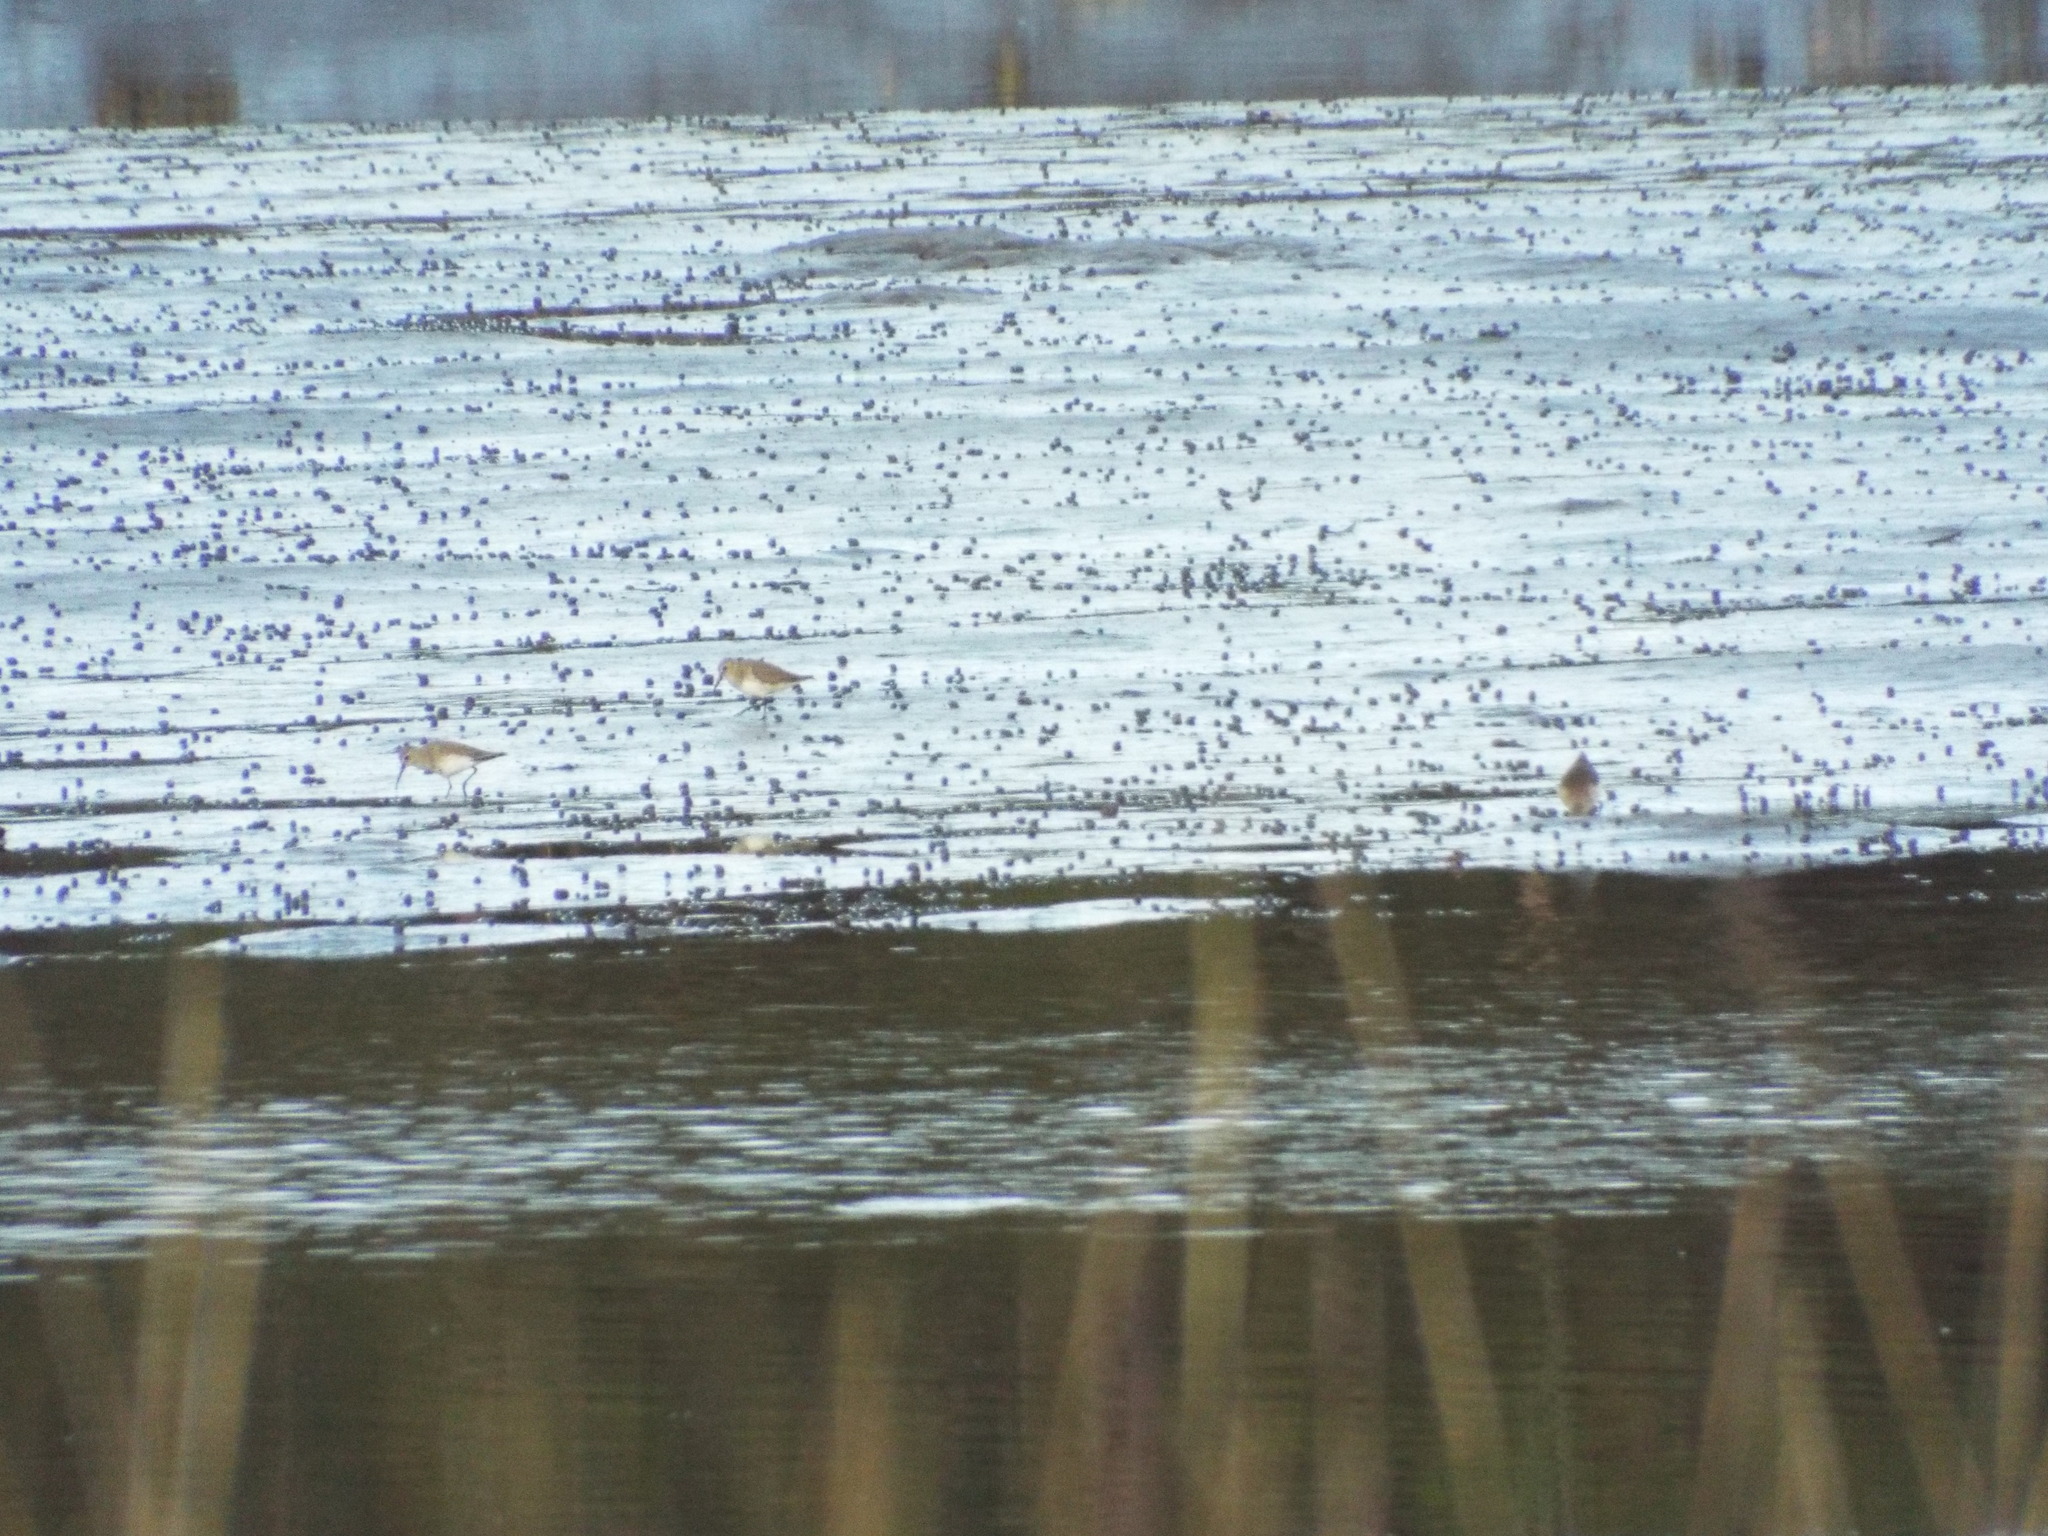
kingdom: Animalia
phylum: Chordata
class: Aves
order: Charadriiformes
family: Scolopacidae
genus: Calidris
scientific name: Calidris alpina
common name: Dunlin
